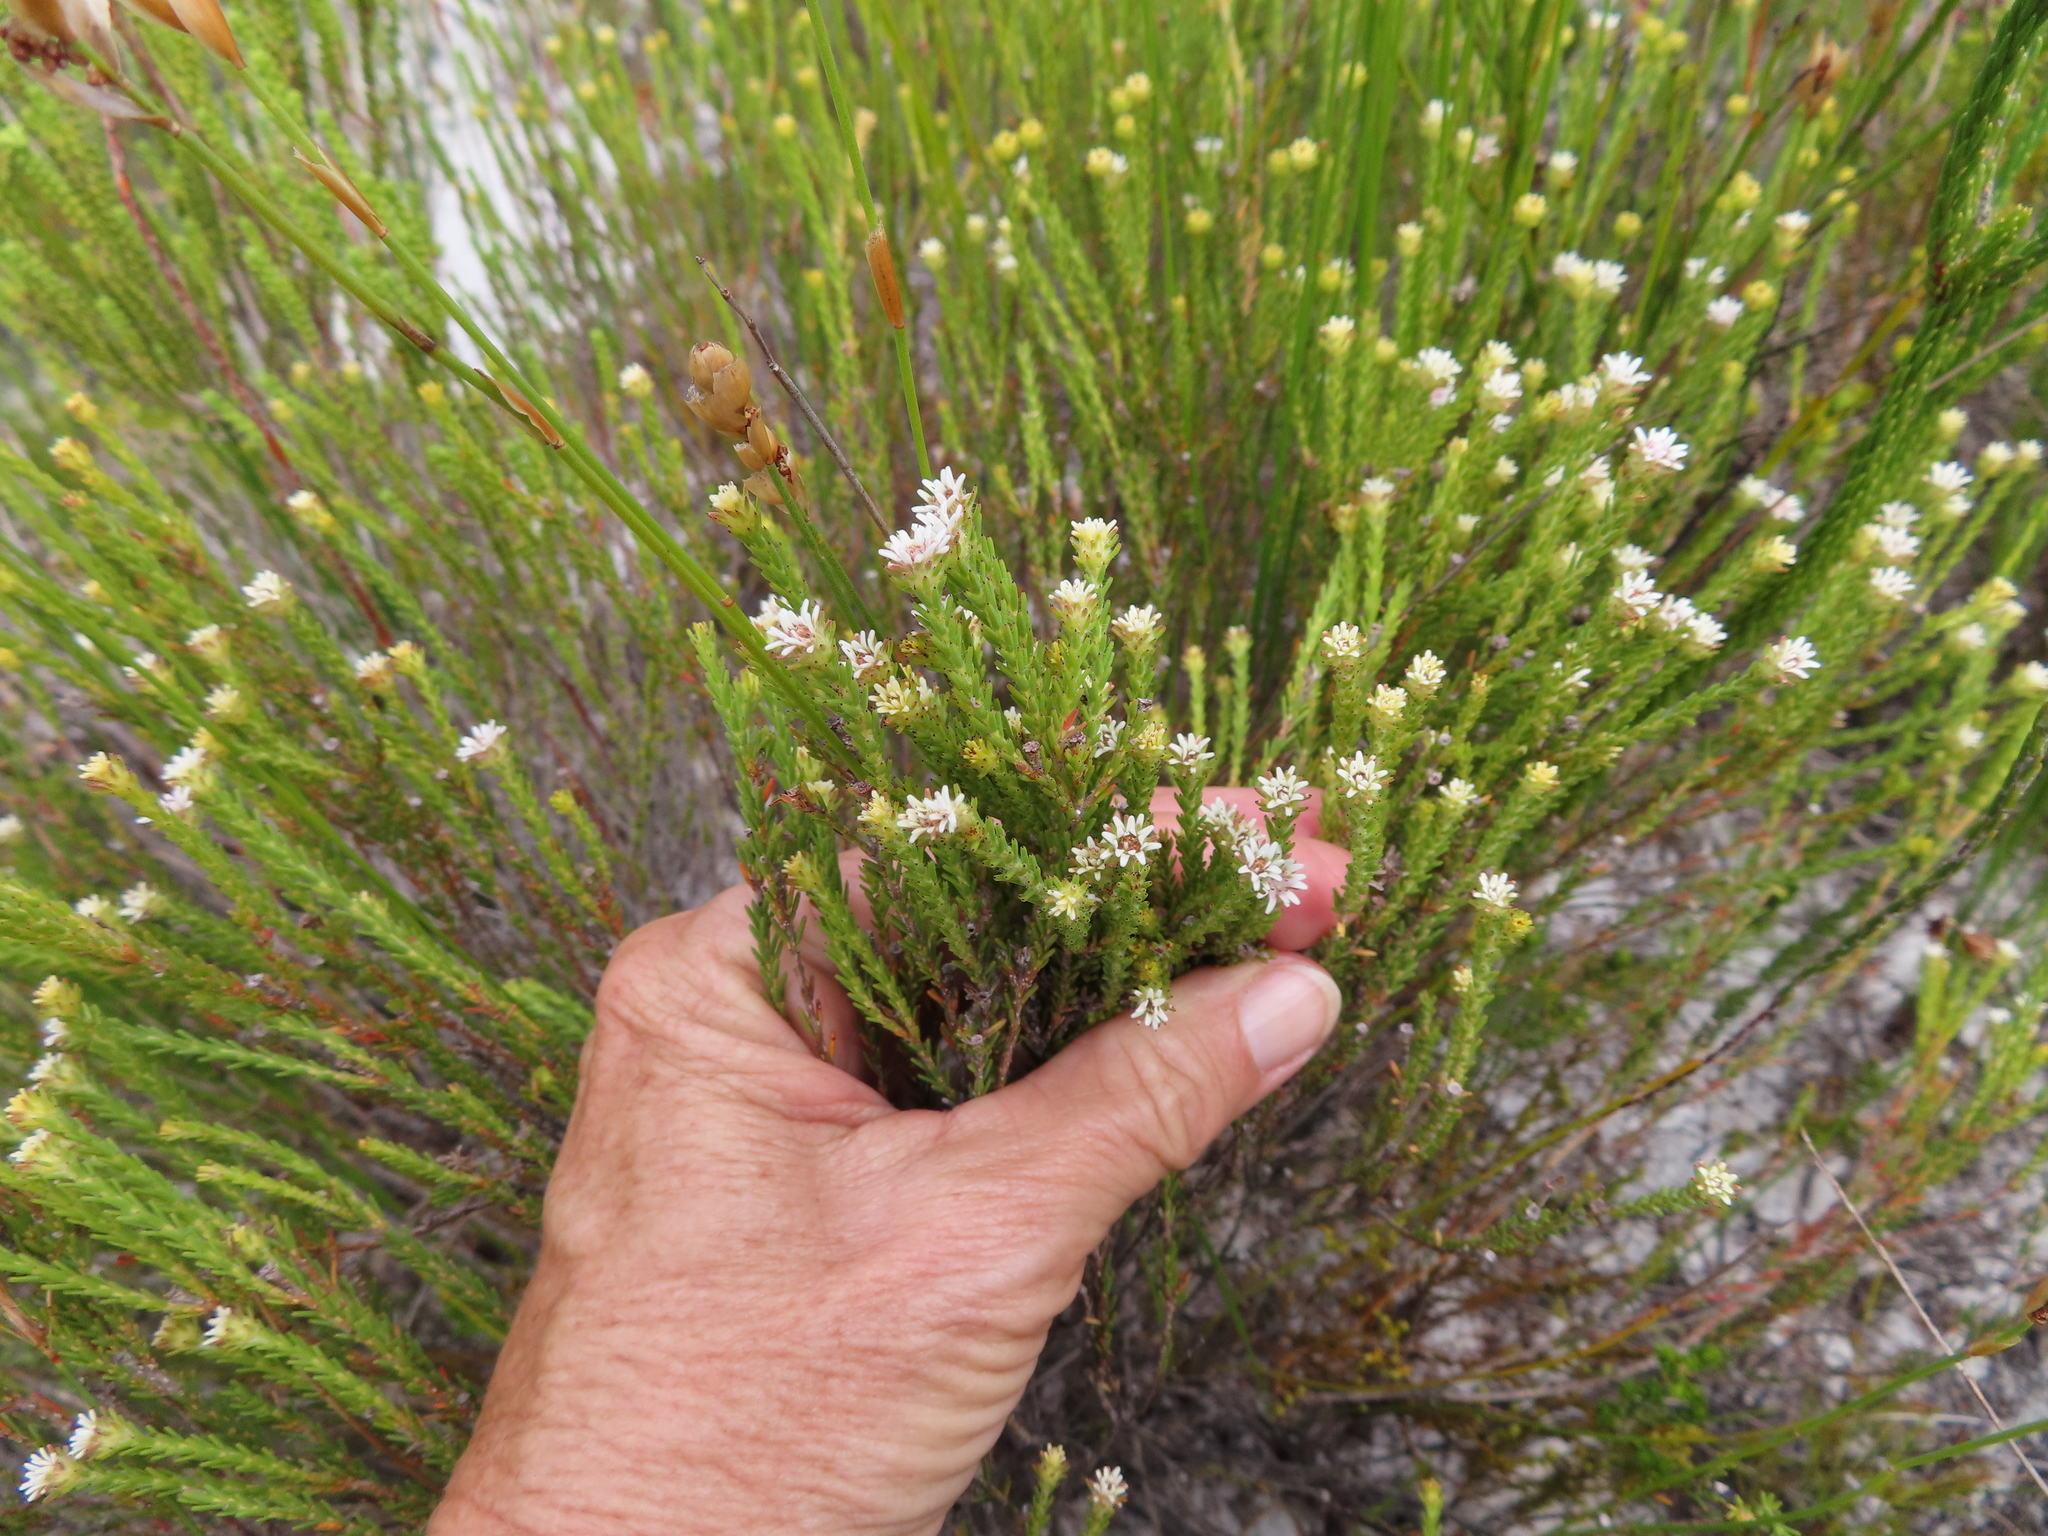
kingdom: Plantae
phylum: Tracheophyta
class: Magnoliopsida
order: Bruniales
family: Bruniaceae
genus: Staavia
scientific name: Staavia radiata
